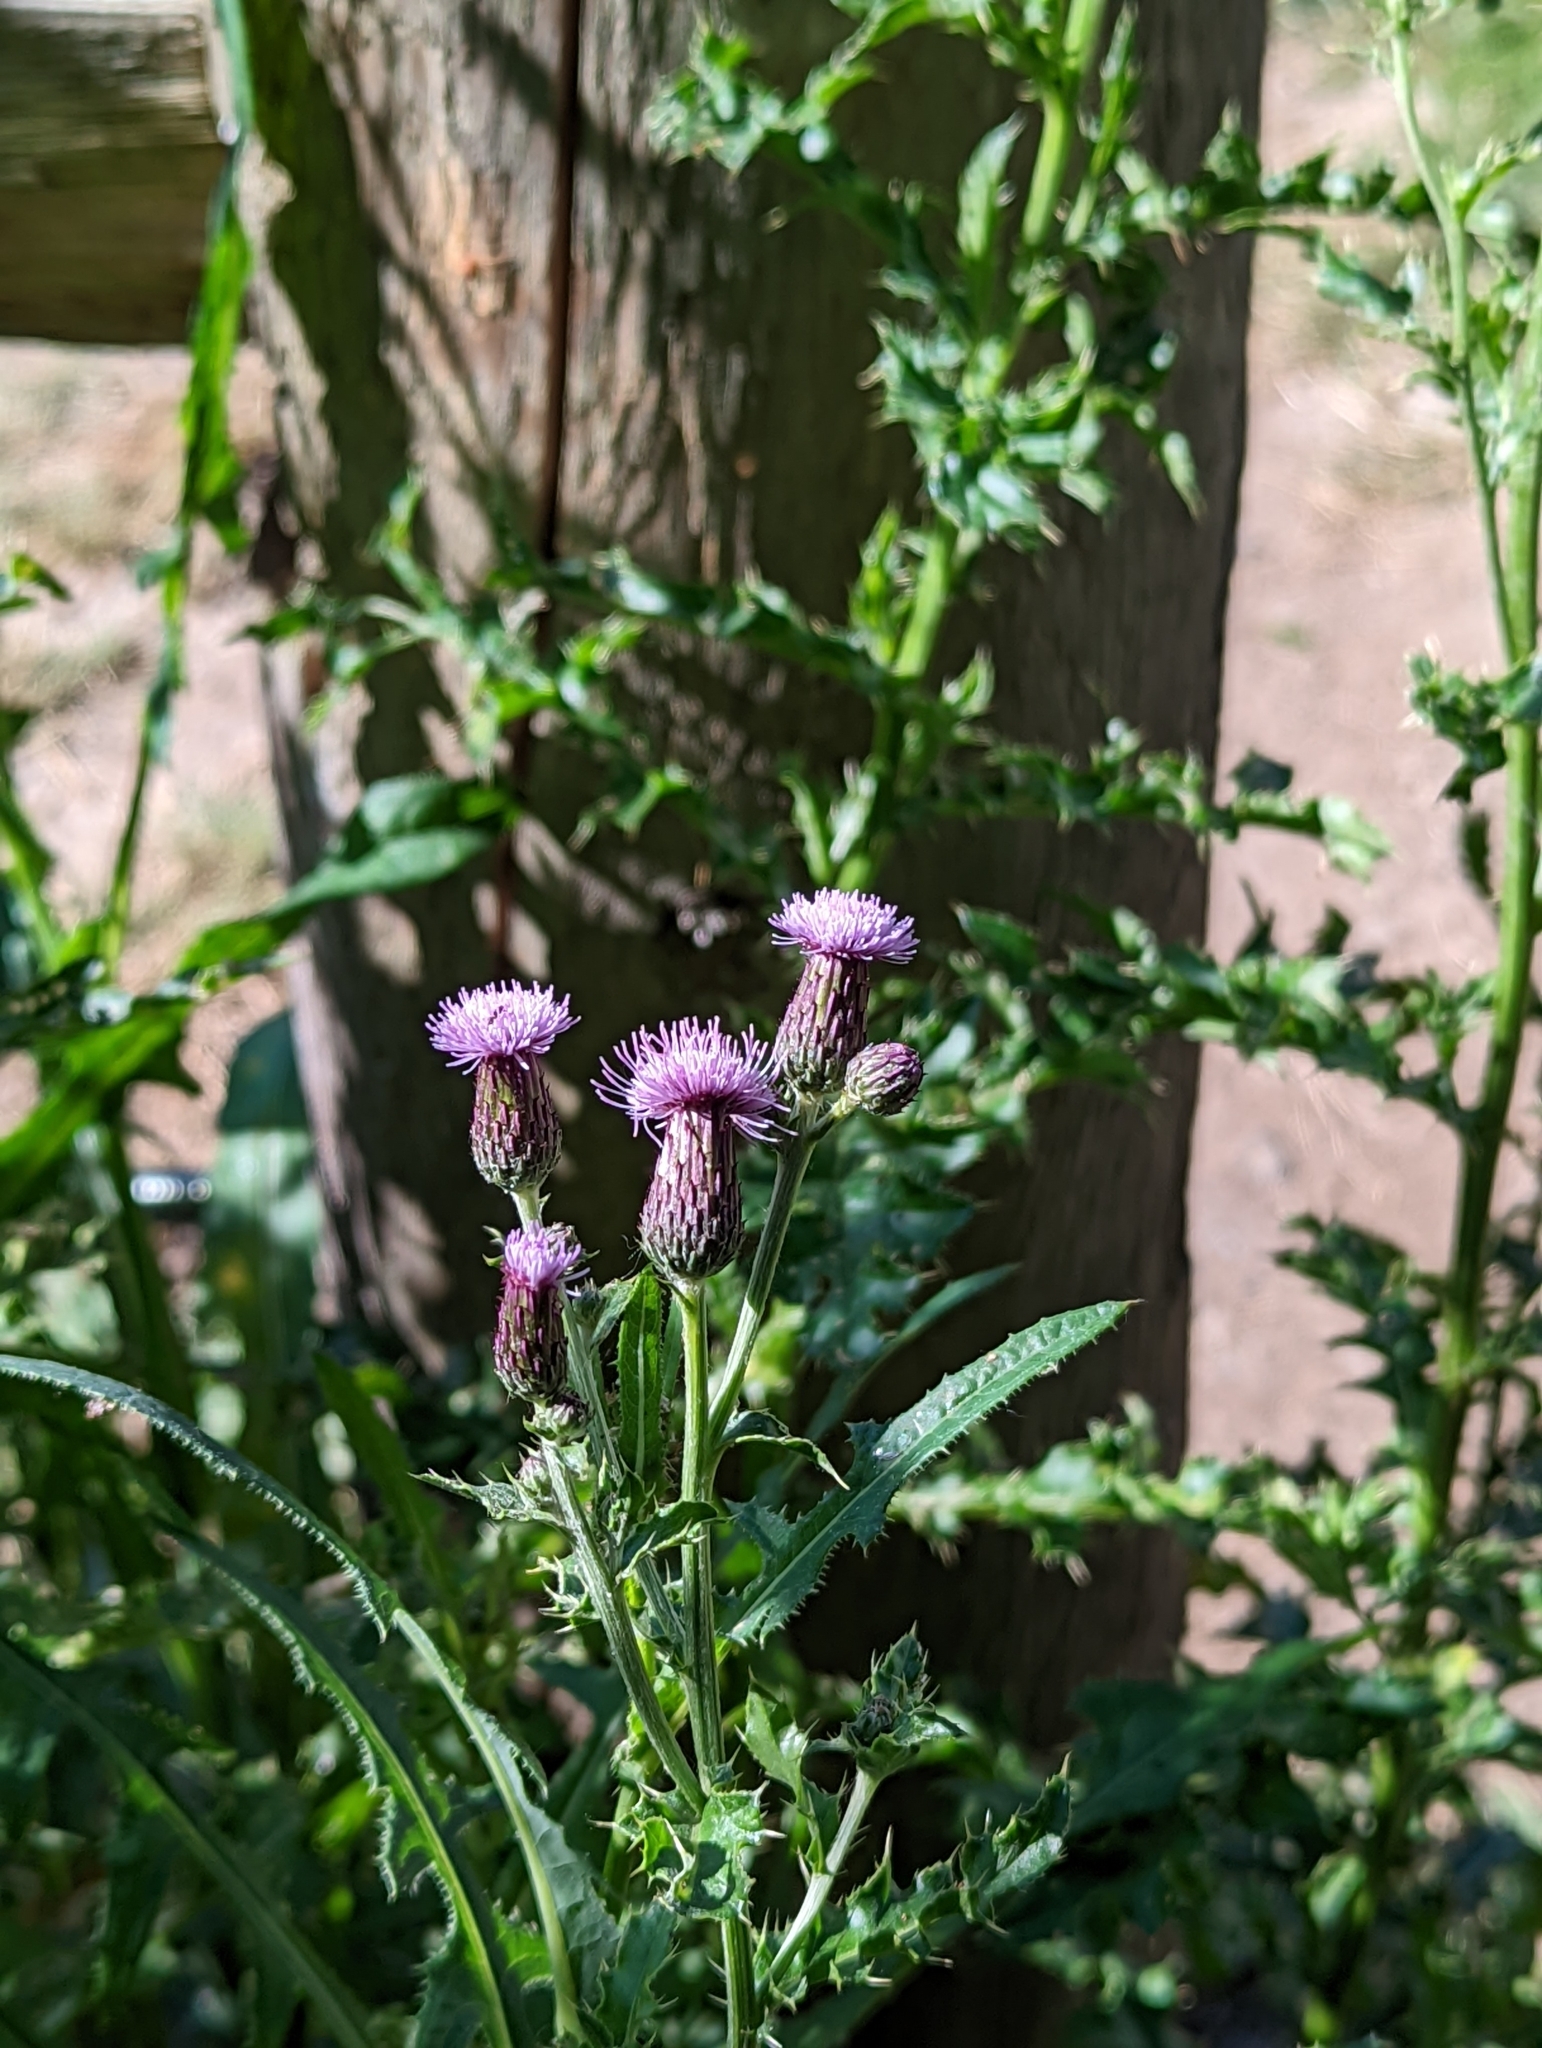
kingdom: Plantae
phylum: Tracheophyta
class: Magnoliopsida
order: Asterales
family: Asteraceae
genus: Cirsium
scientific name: Cirsium arvense
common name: Creeping thistle
